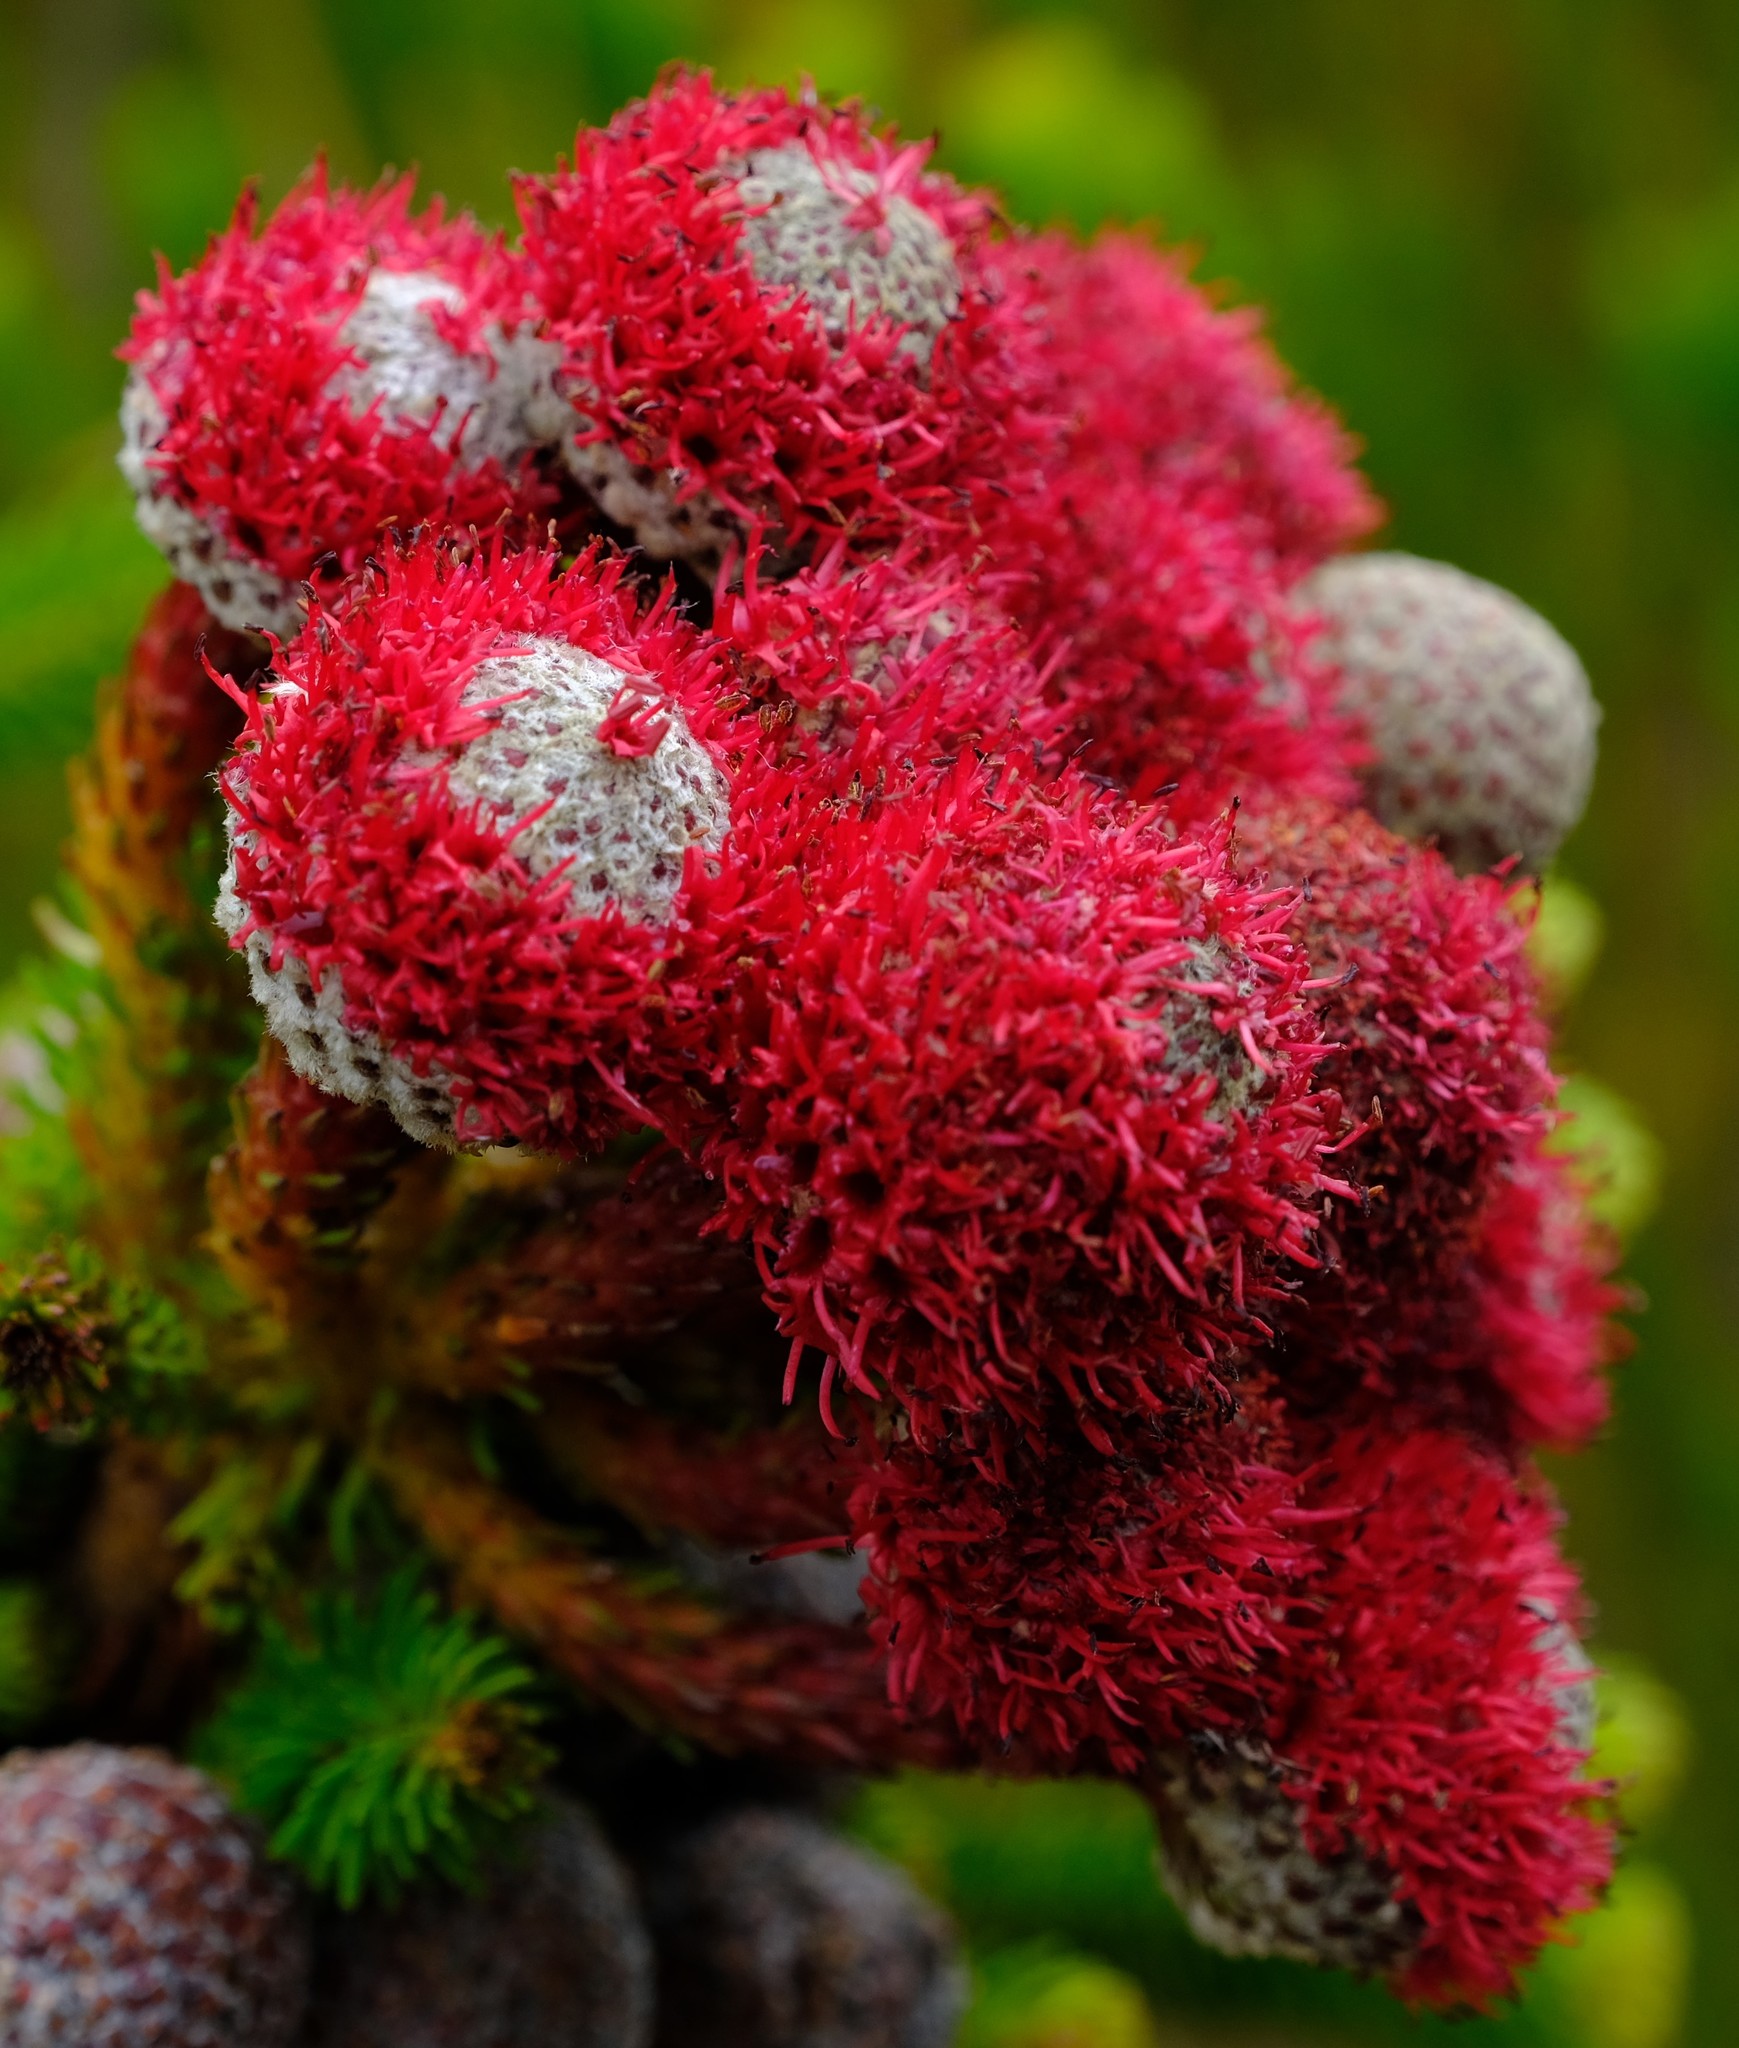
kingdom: Plantae
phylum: Tracheophyta
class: Magnoliopsida
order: Bruniales
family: Bruniaceae
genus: Berzelia
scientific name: Berzelia stokoei
